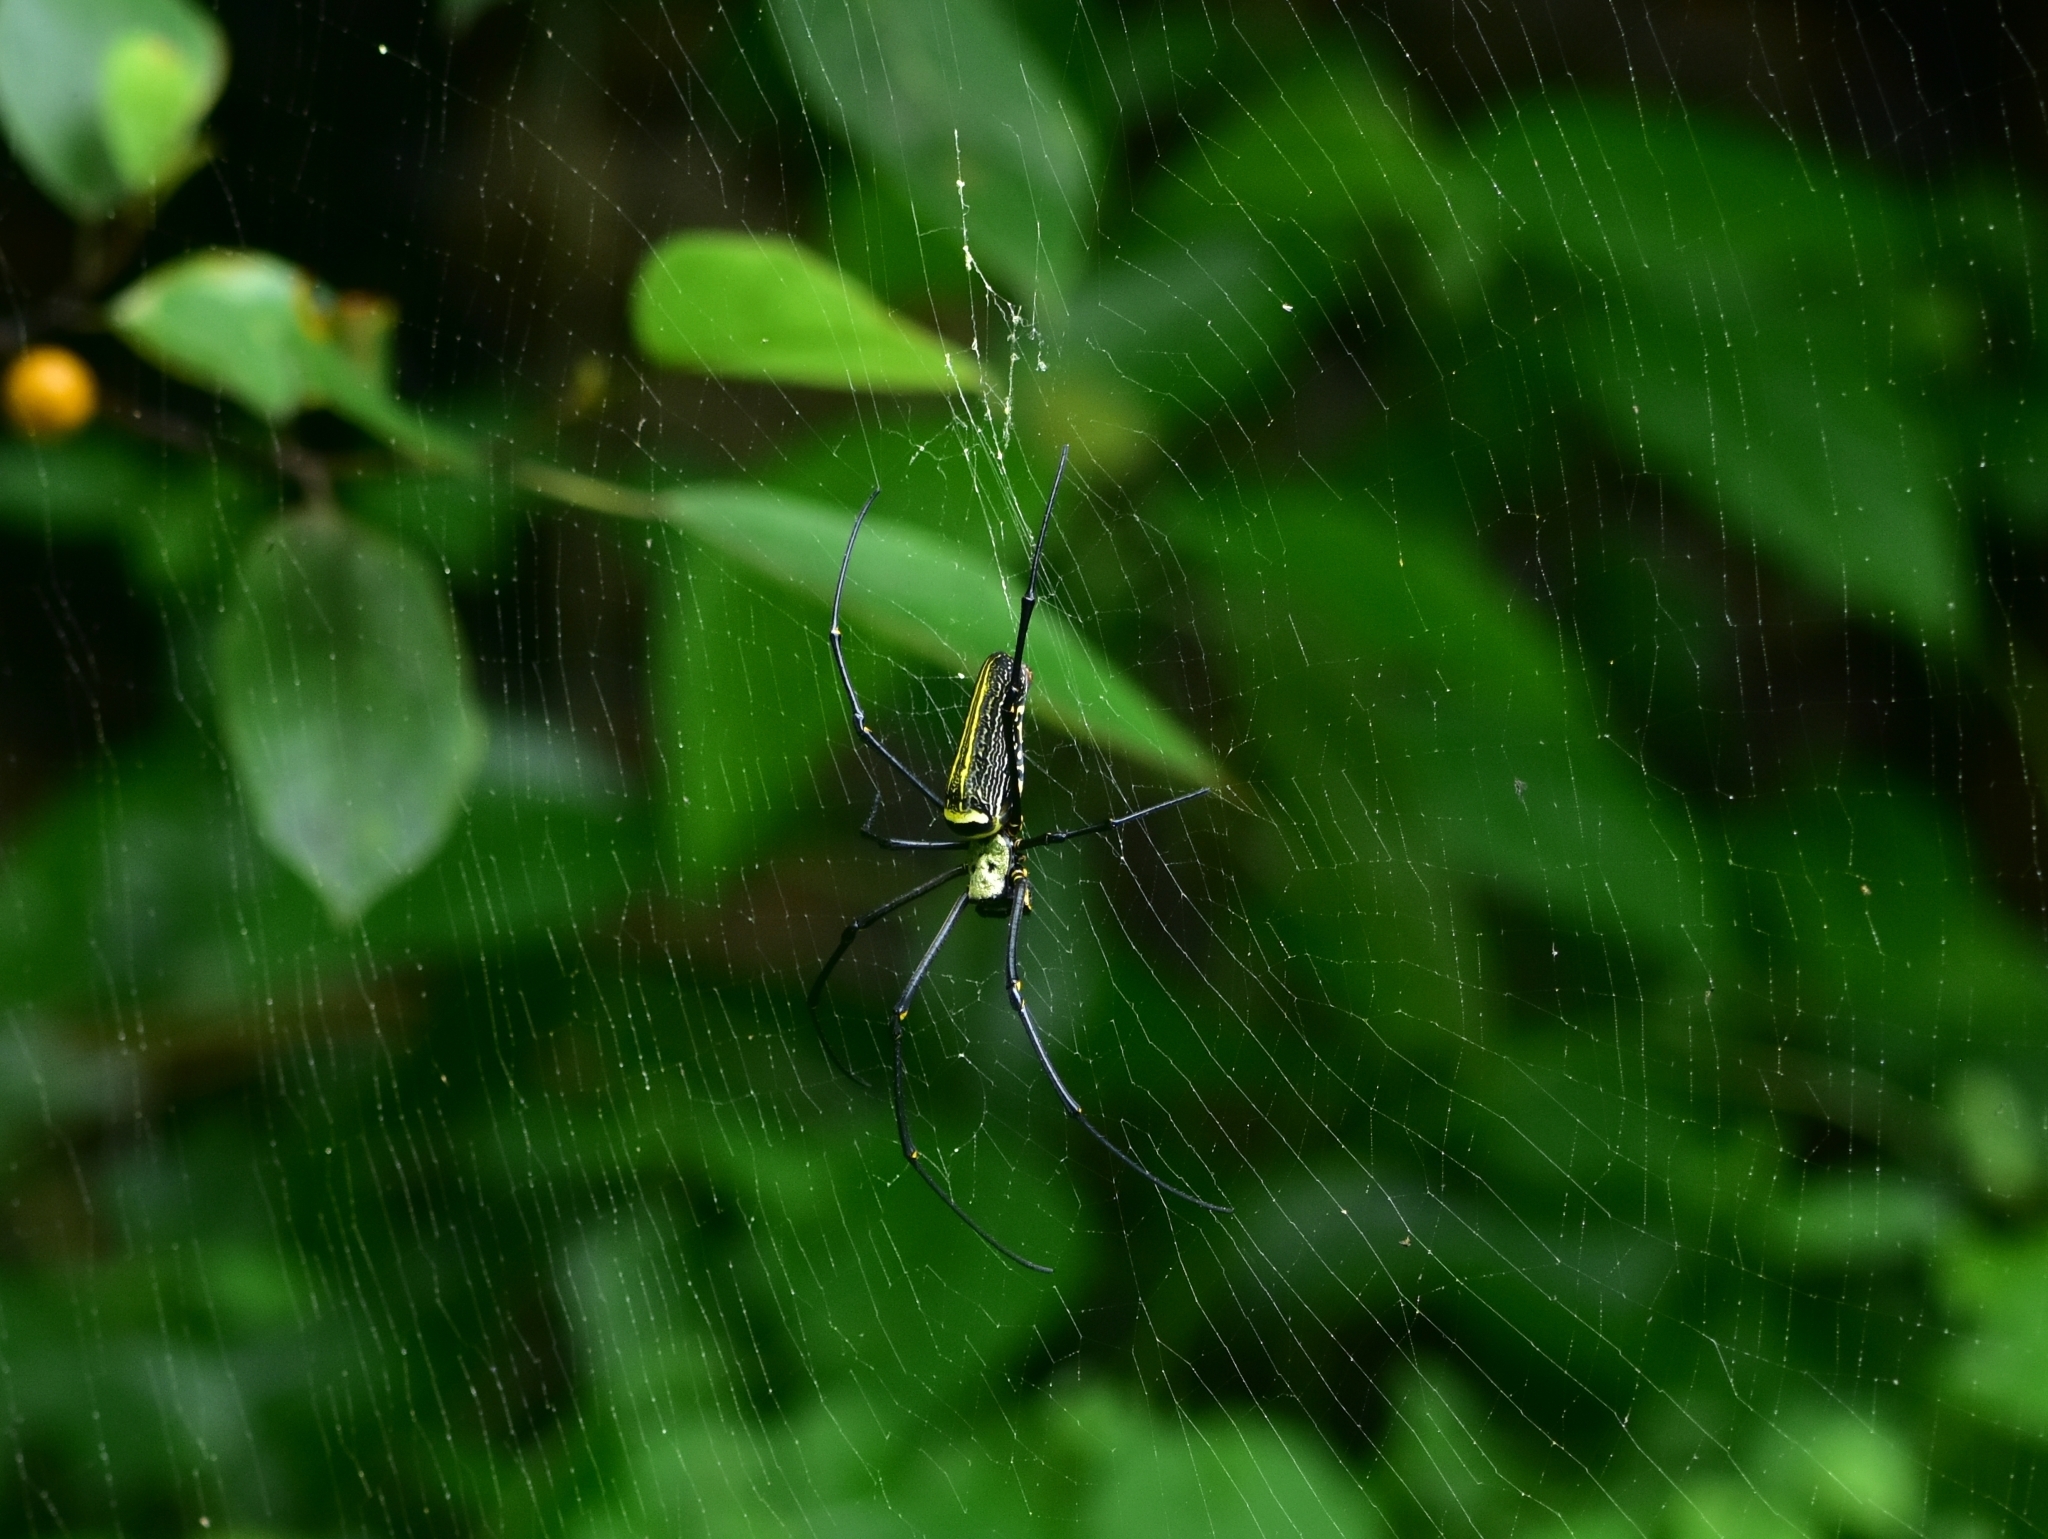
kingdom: Animalia
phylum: Arthropoda
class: Arachnida
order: Araneae
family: Araneidae
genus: Nephila
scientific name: Nephila pilipes
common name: Giant golden orb weaver
